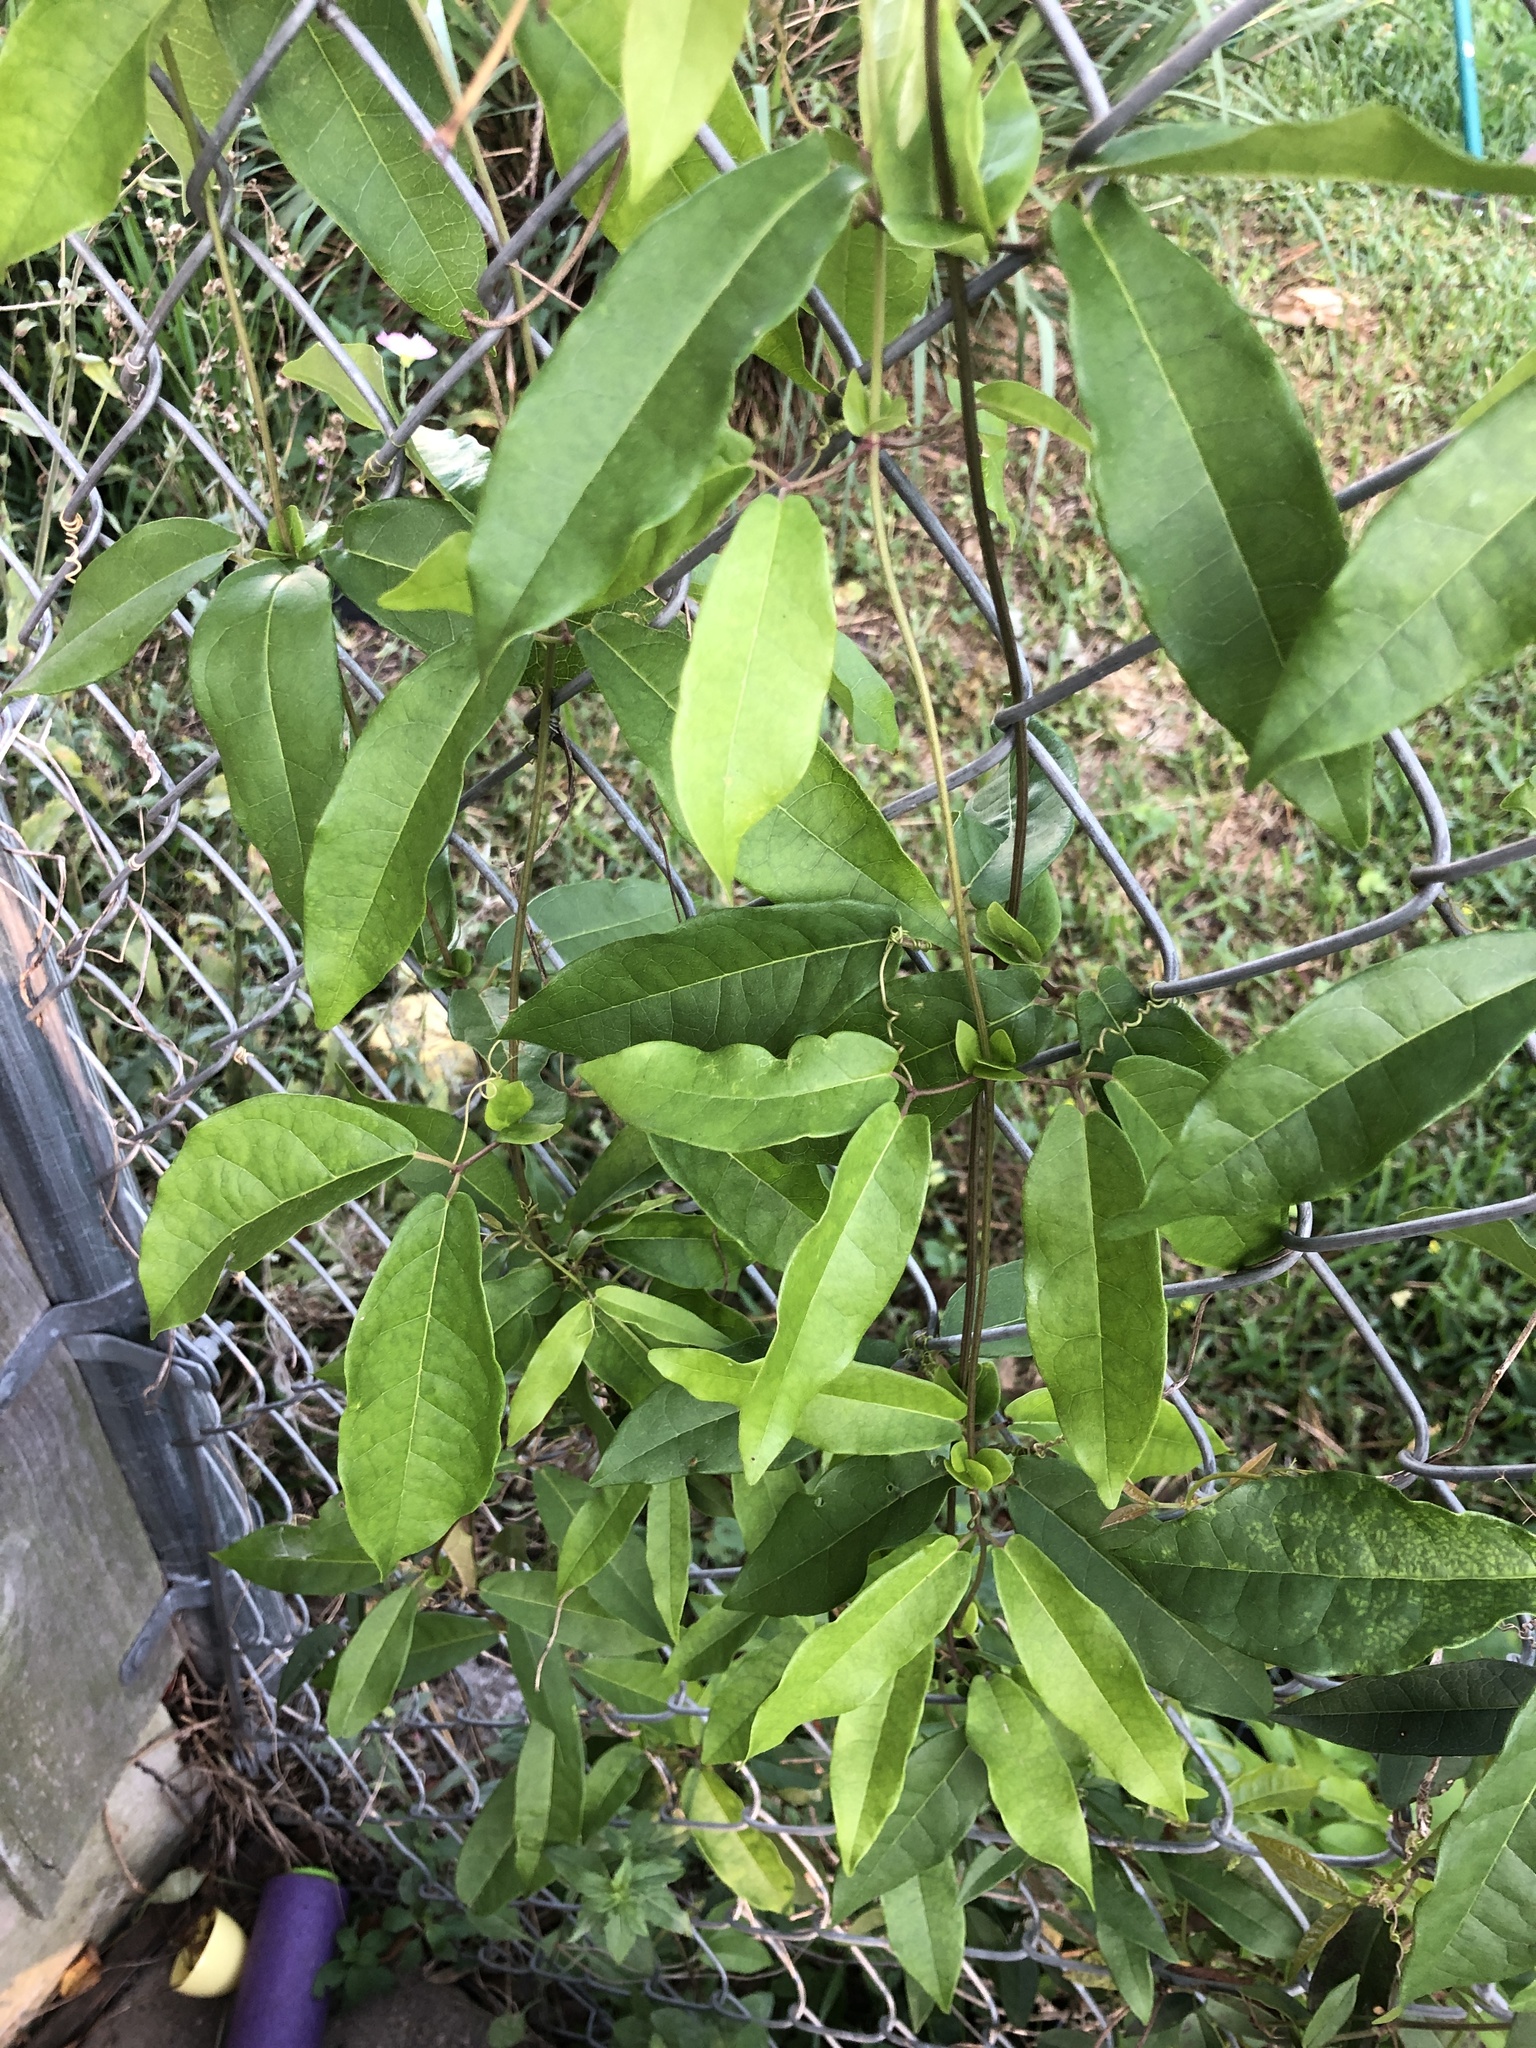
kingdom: Plantae
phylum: Tracheophyta
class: Magnoliopsida
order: Lamiales
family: Bignoniaceae
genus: Bignonia
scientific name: Bignonia capreolata
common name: Crossvine
